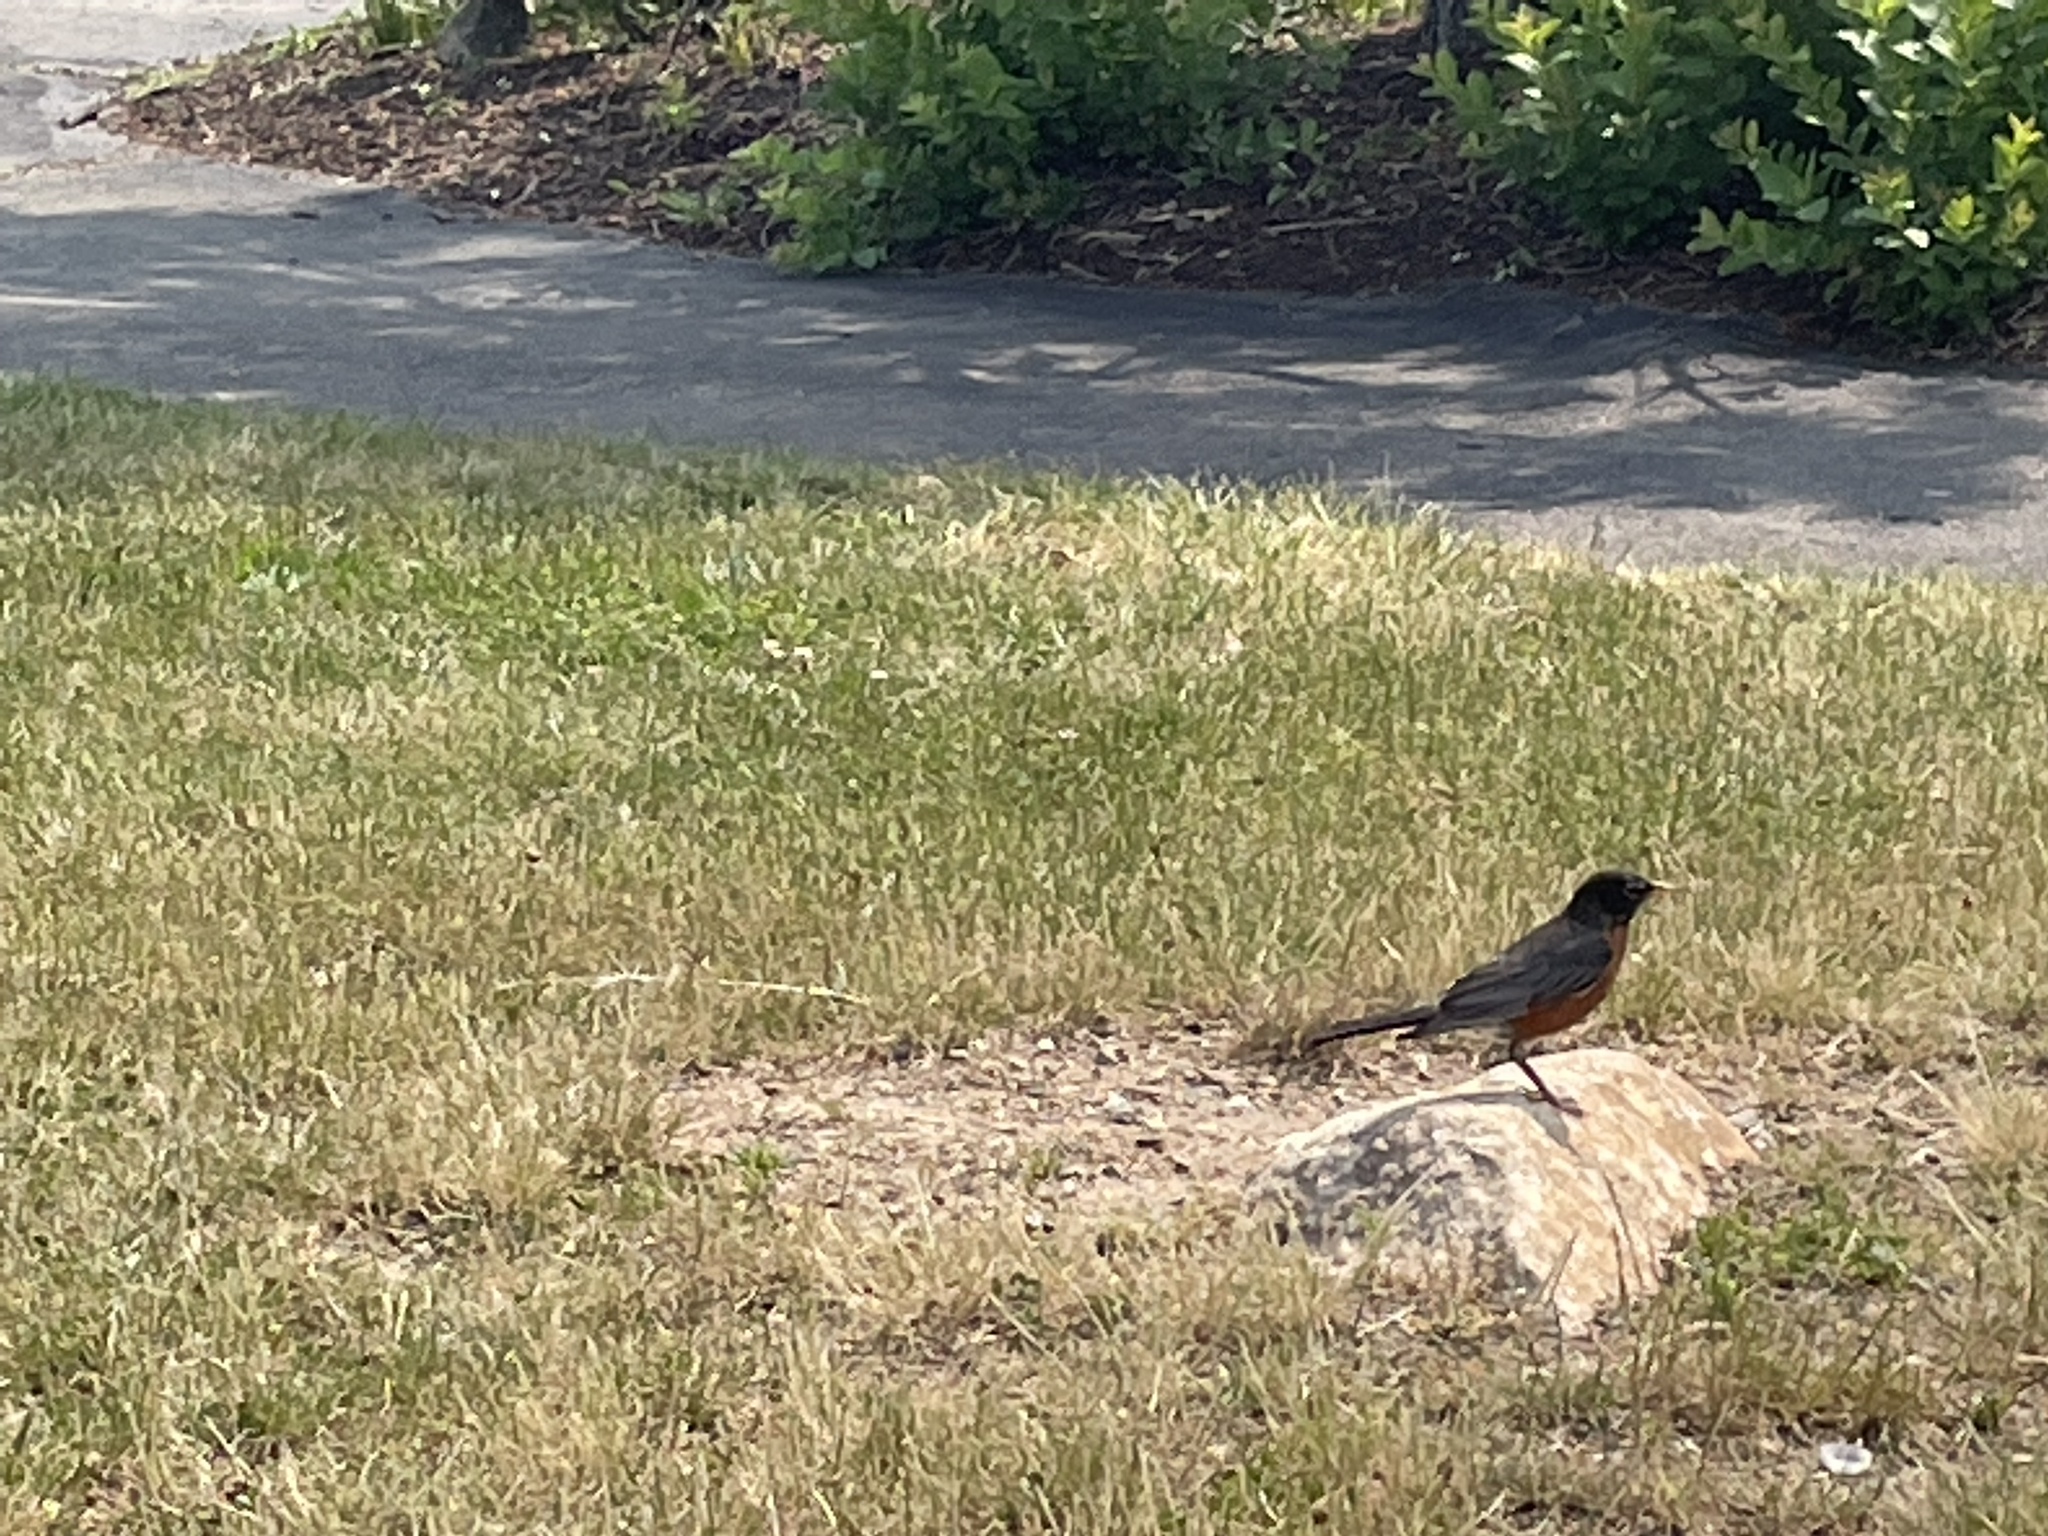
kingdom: Animalia
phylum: Chordata
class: Aves
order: Passeriformes
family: Turdidae
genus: Turdus
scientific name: Turdus migratorius
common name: American robin
